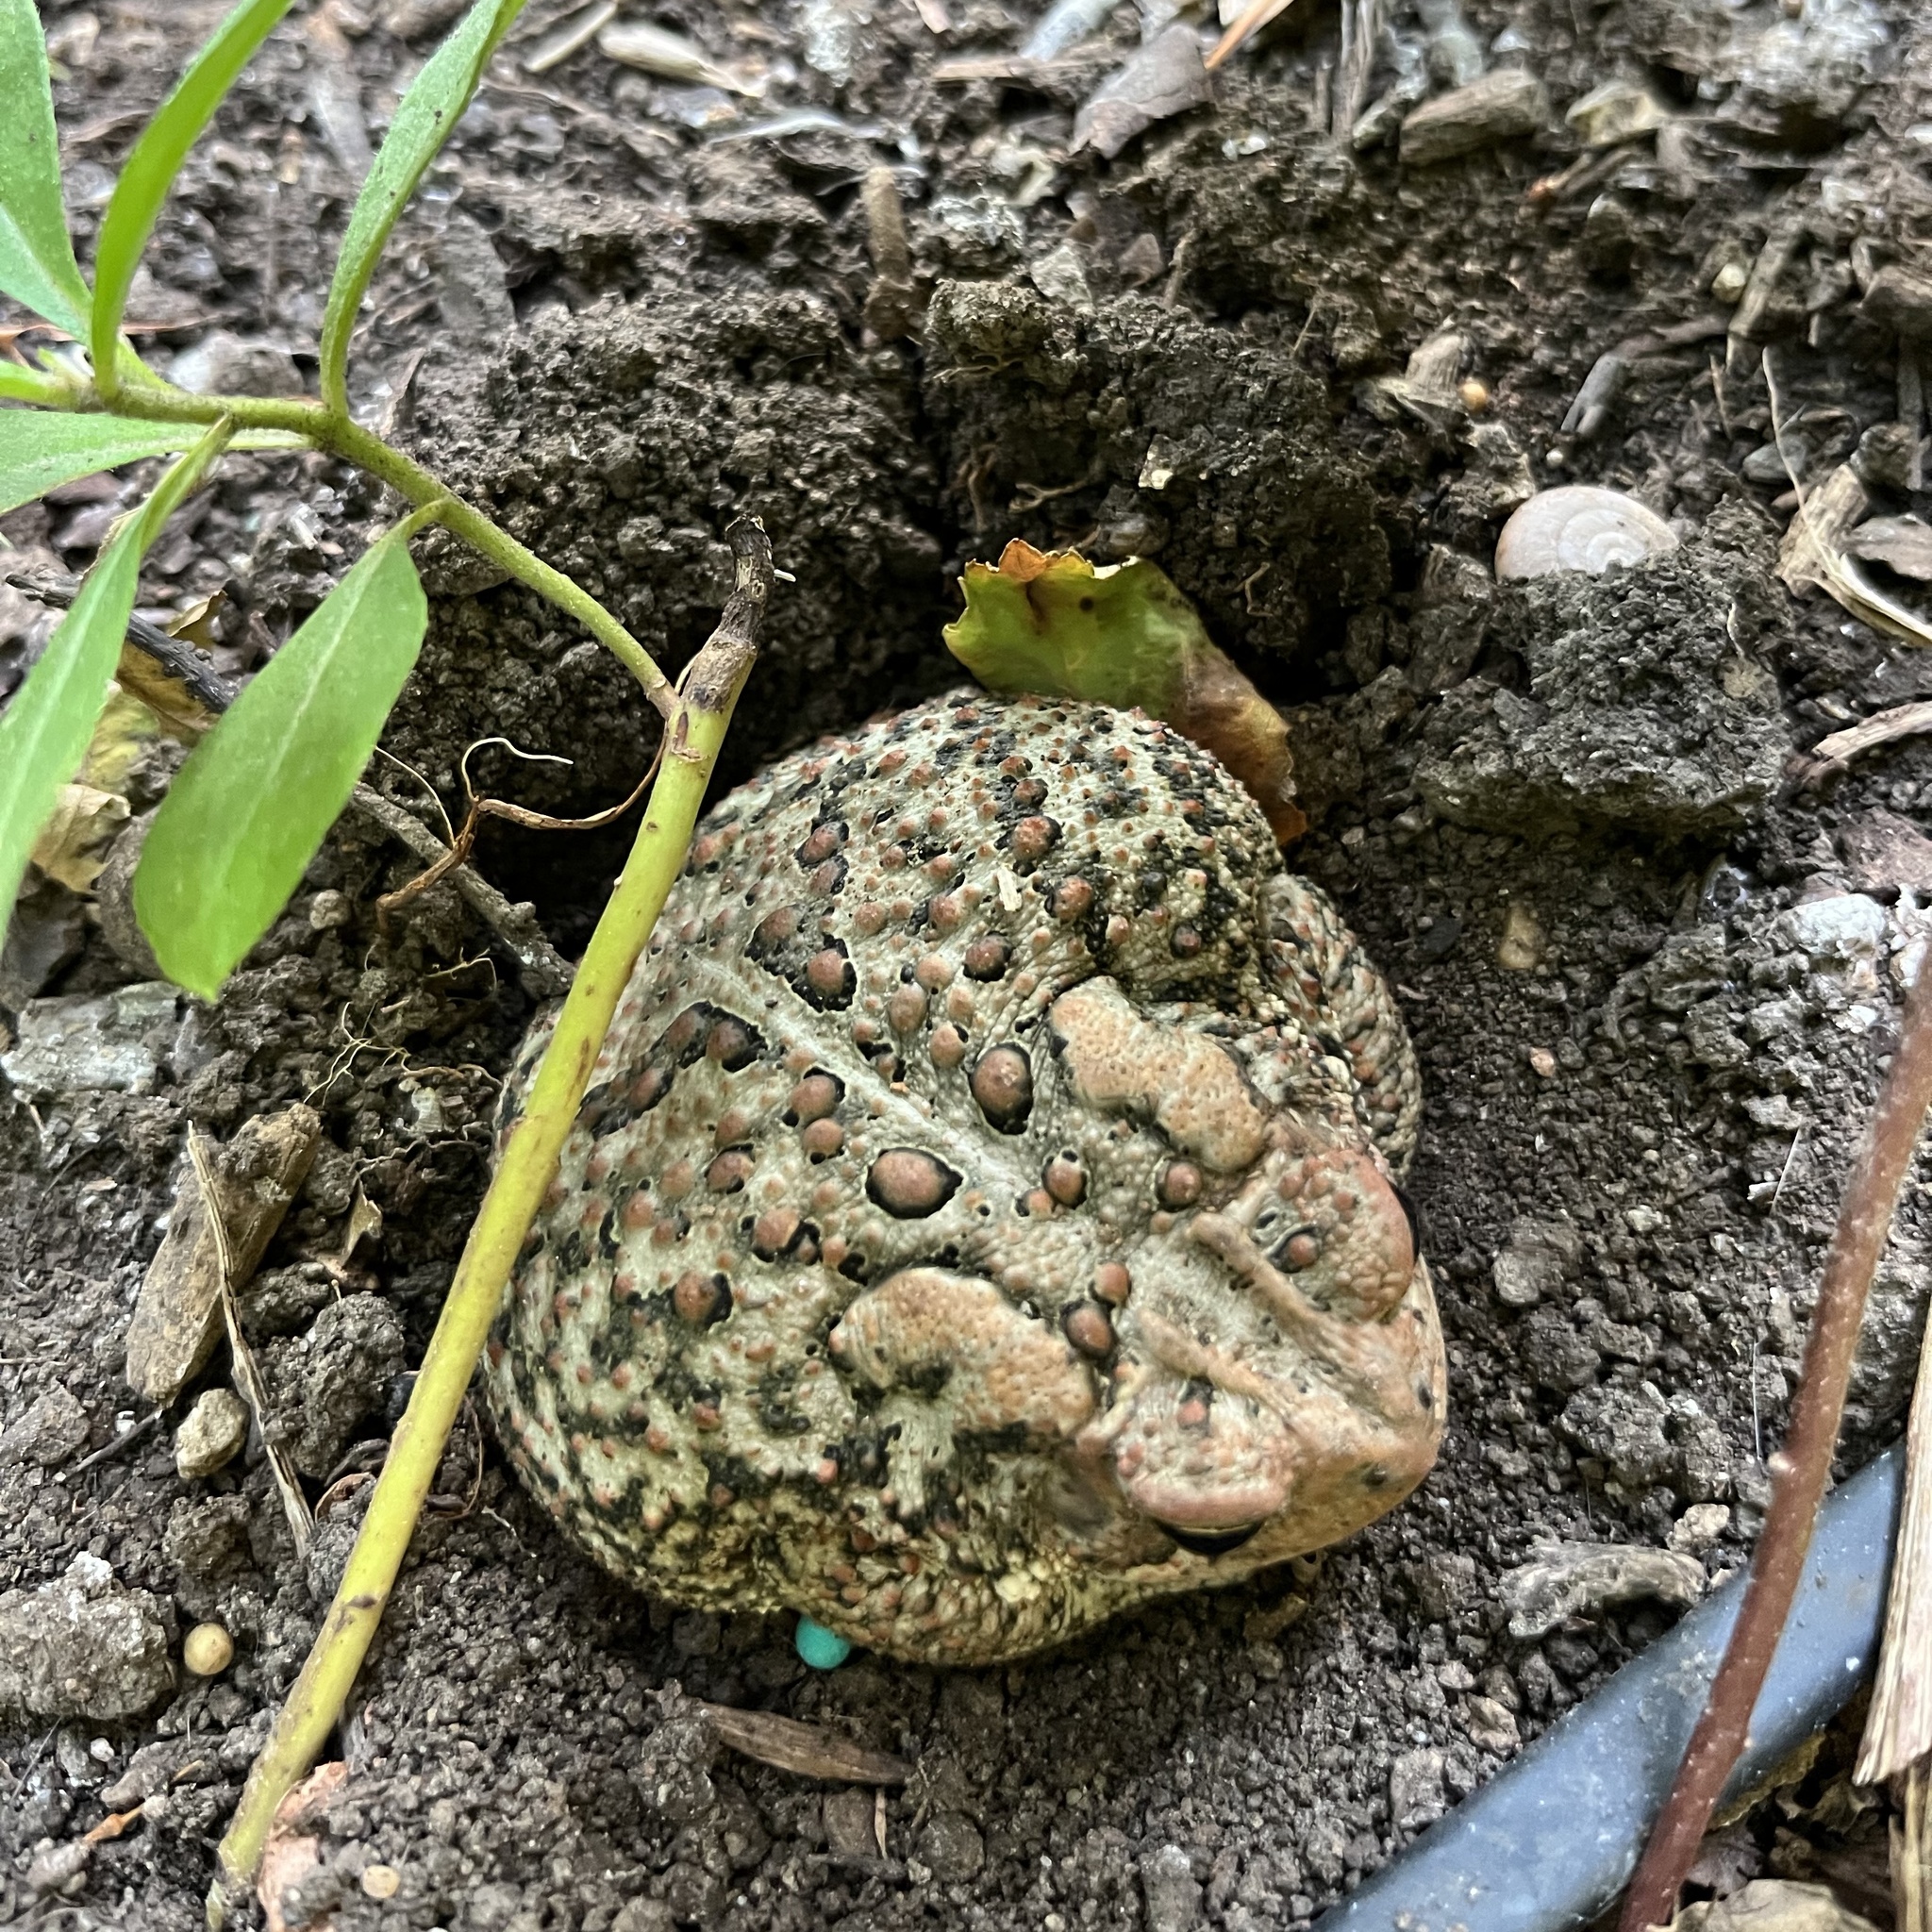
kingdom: Animalia
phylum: Chordata
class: Amphibia
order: Anura
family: Bufonidae
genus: Anaxyrus
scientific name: Anaxyrus americanus
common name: American toad
